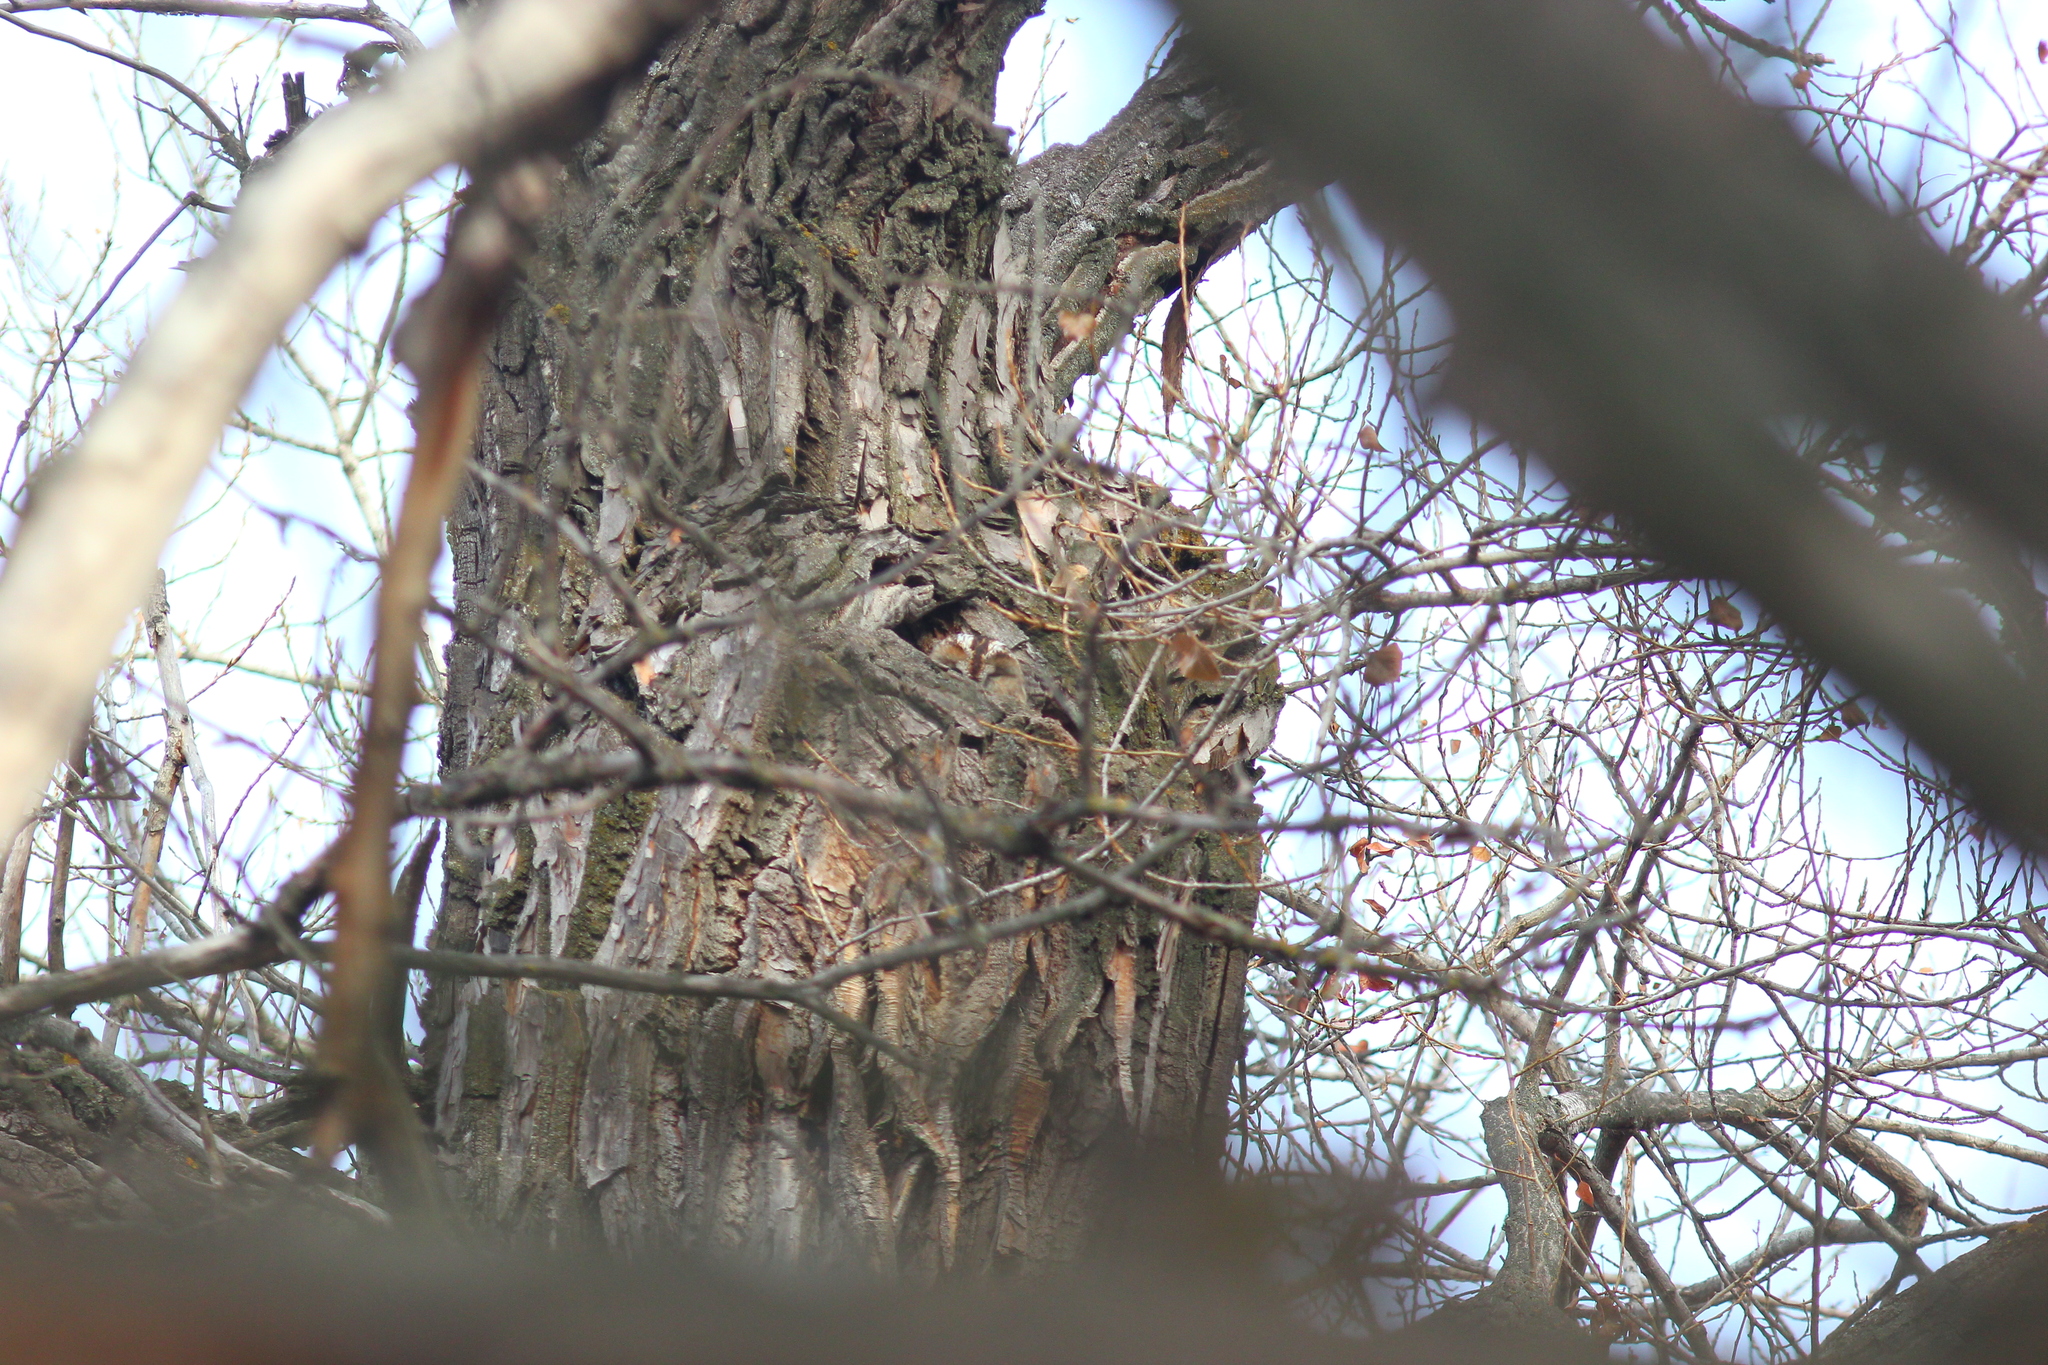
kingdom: Animalia
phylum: Chordata
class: Aves
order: Strigiformes
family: Strigidae
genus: Strix
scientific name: Strix aluco
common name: Tawny owl
